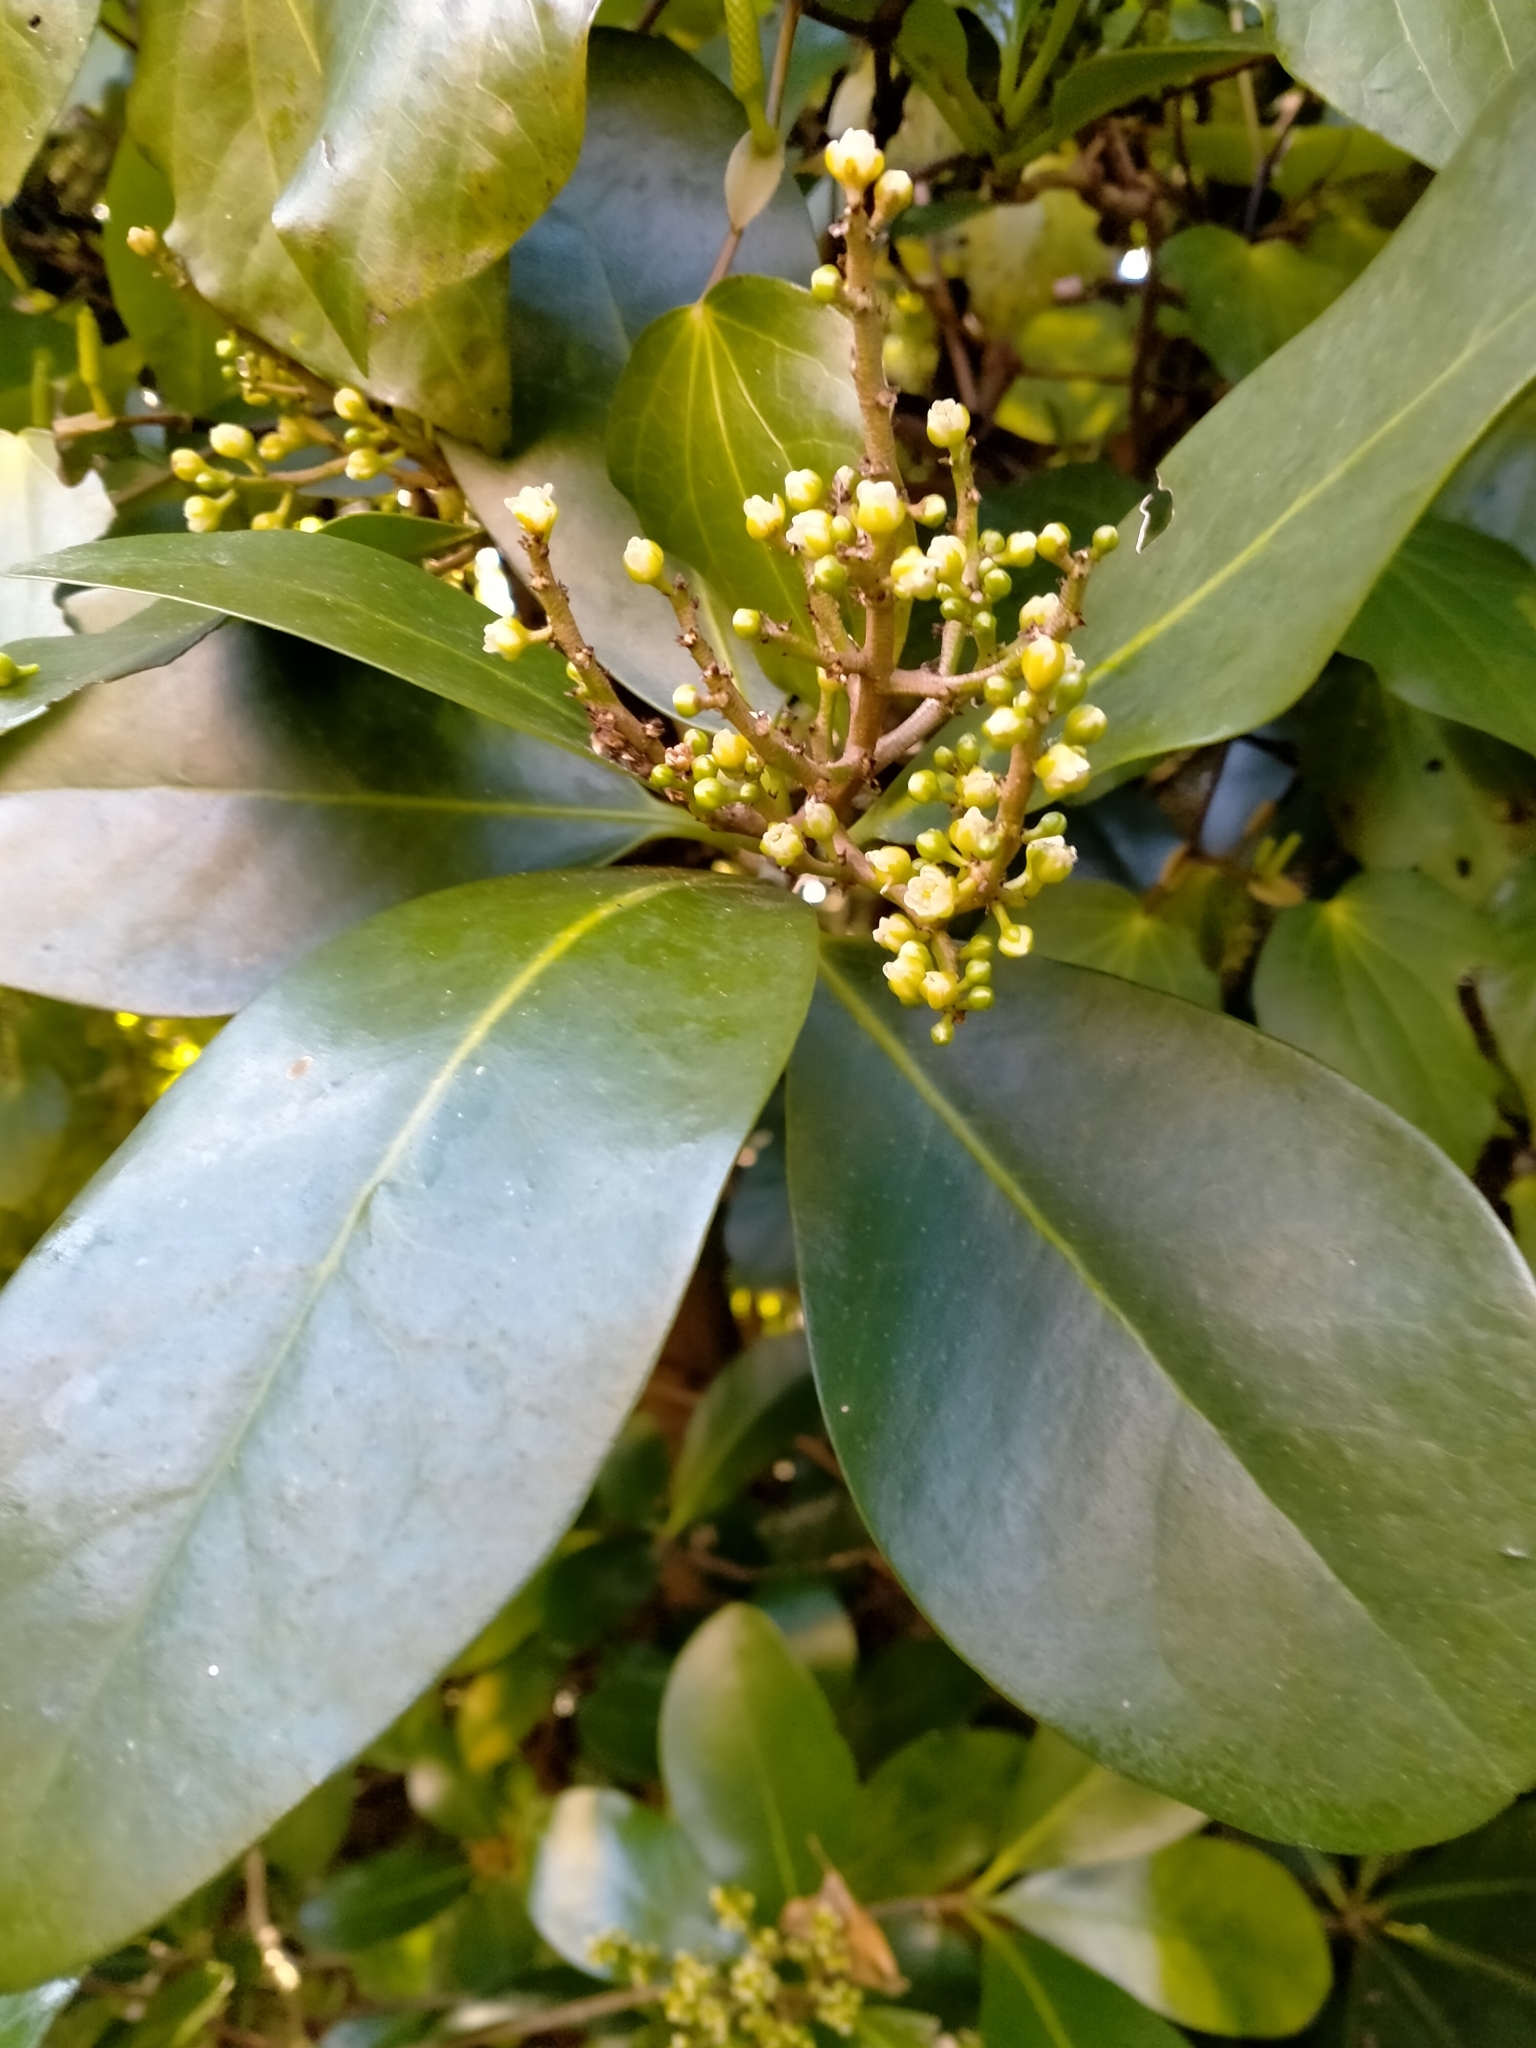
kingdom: Plantae
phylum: Tracheophyta
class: Magnoliopsida
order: Cucurbitales
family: Corynocarpaceae
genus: Corynocarpus
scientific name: Corynocarpus laevigatus
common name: New zealand laurel
